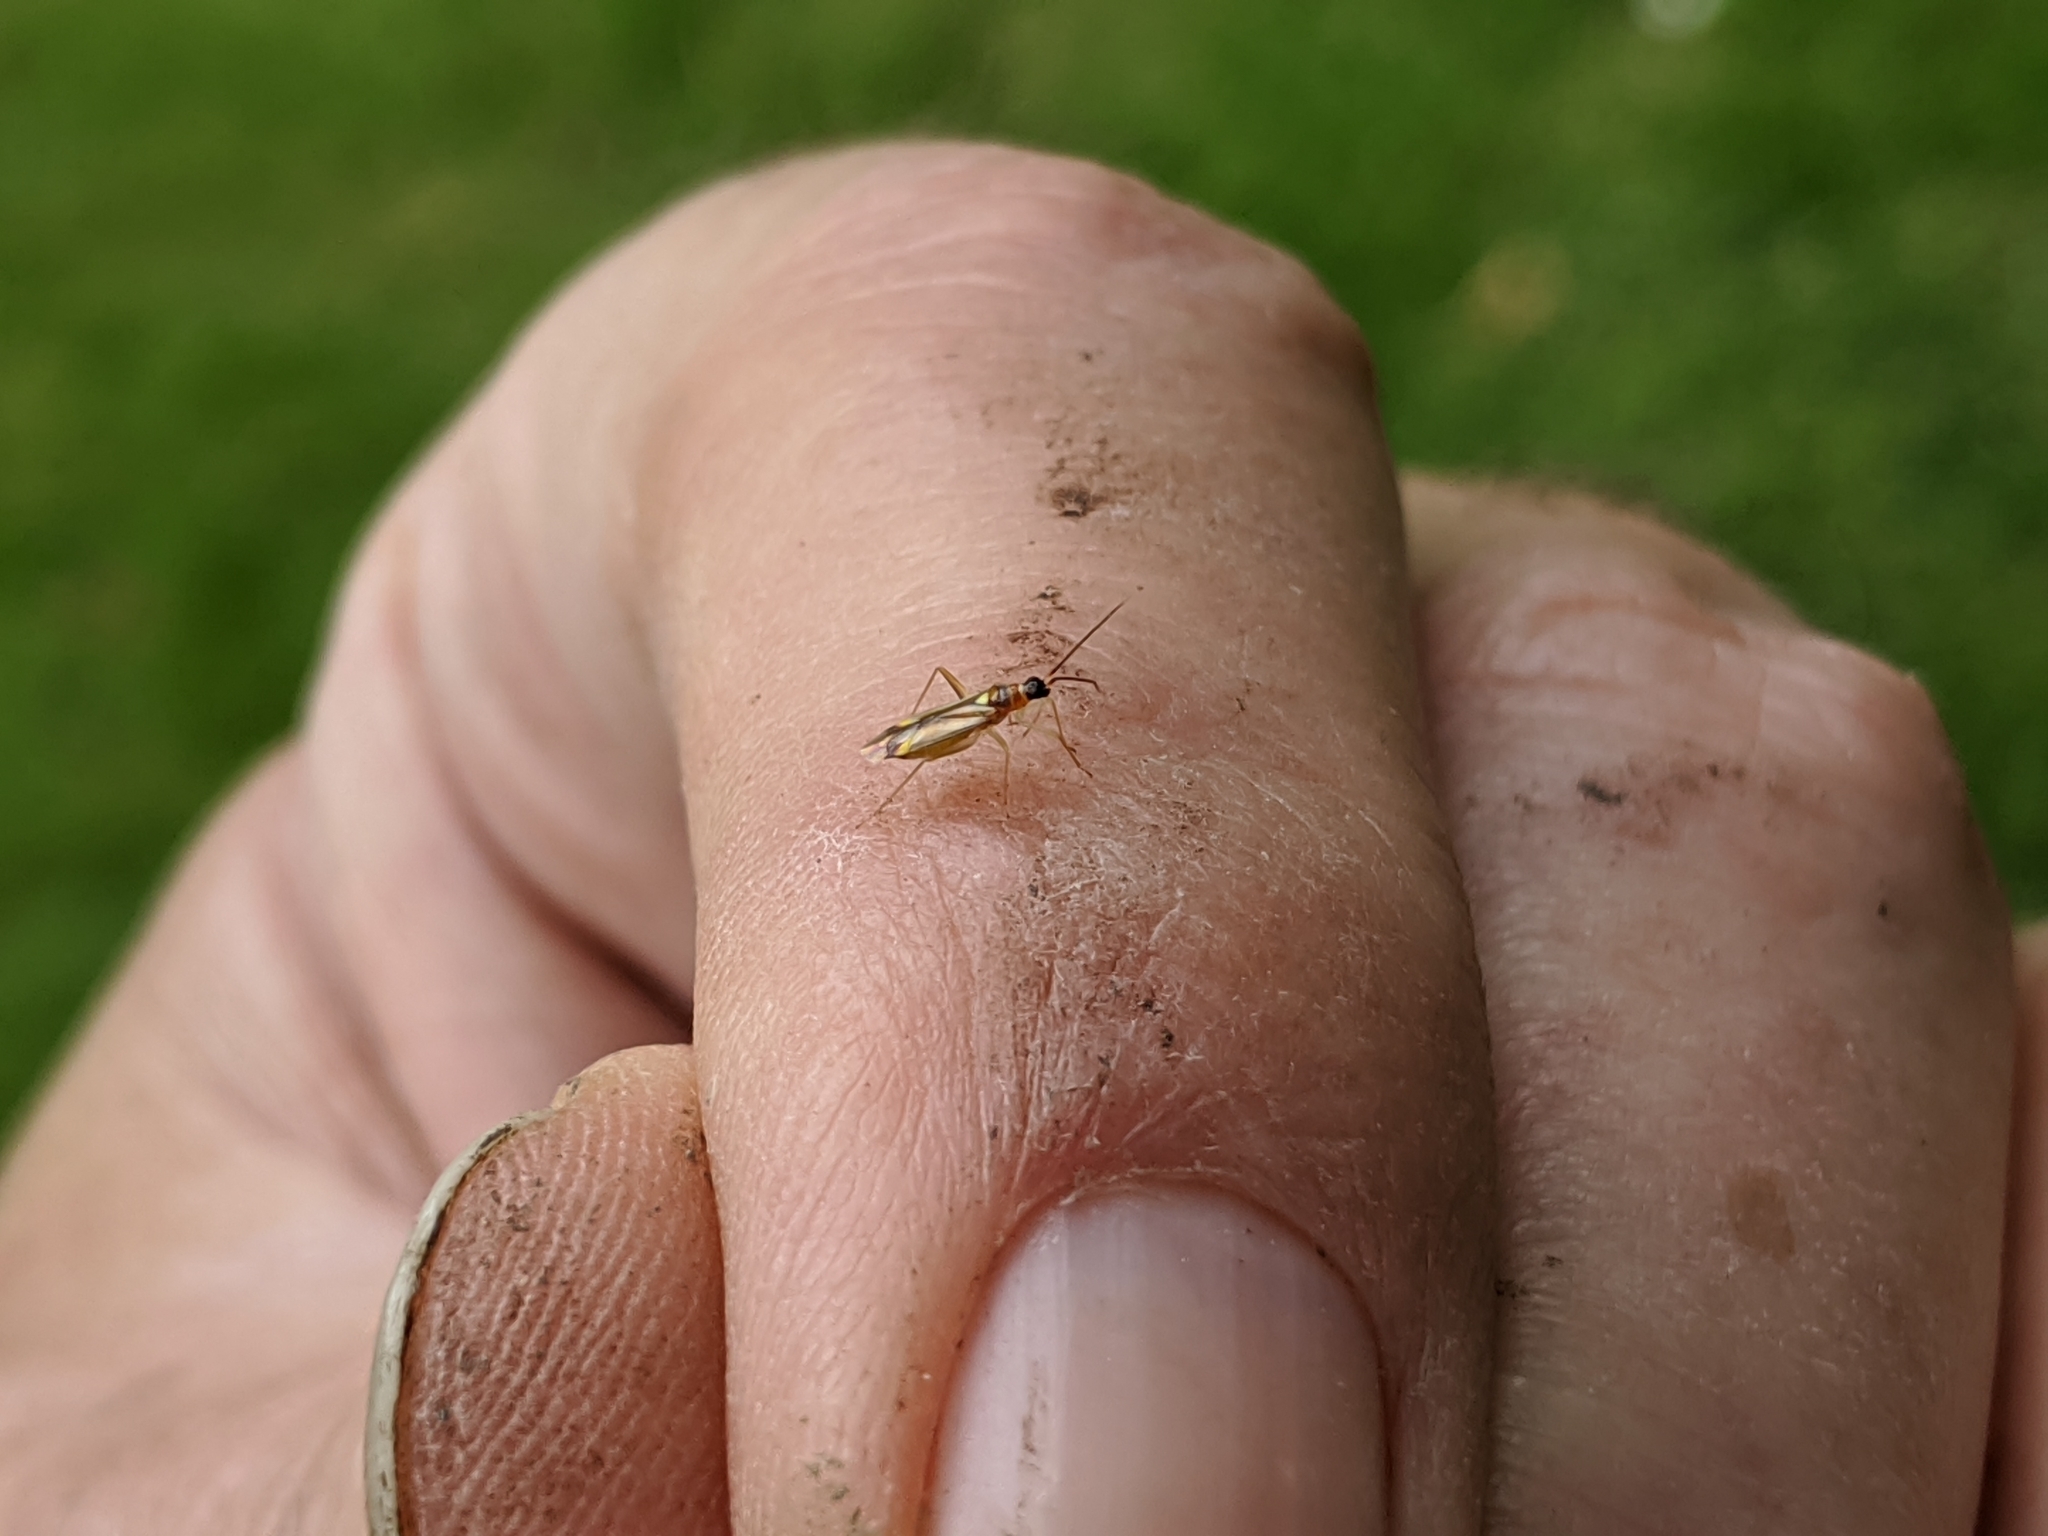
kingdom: Animalia
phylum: Arthropoda
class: Insecta
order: Hemiptera
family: Miridae
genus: Campyloneura
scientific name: Campyloneura virgula
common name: Predatory bug
